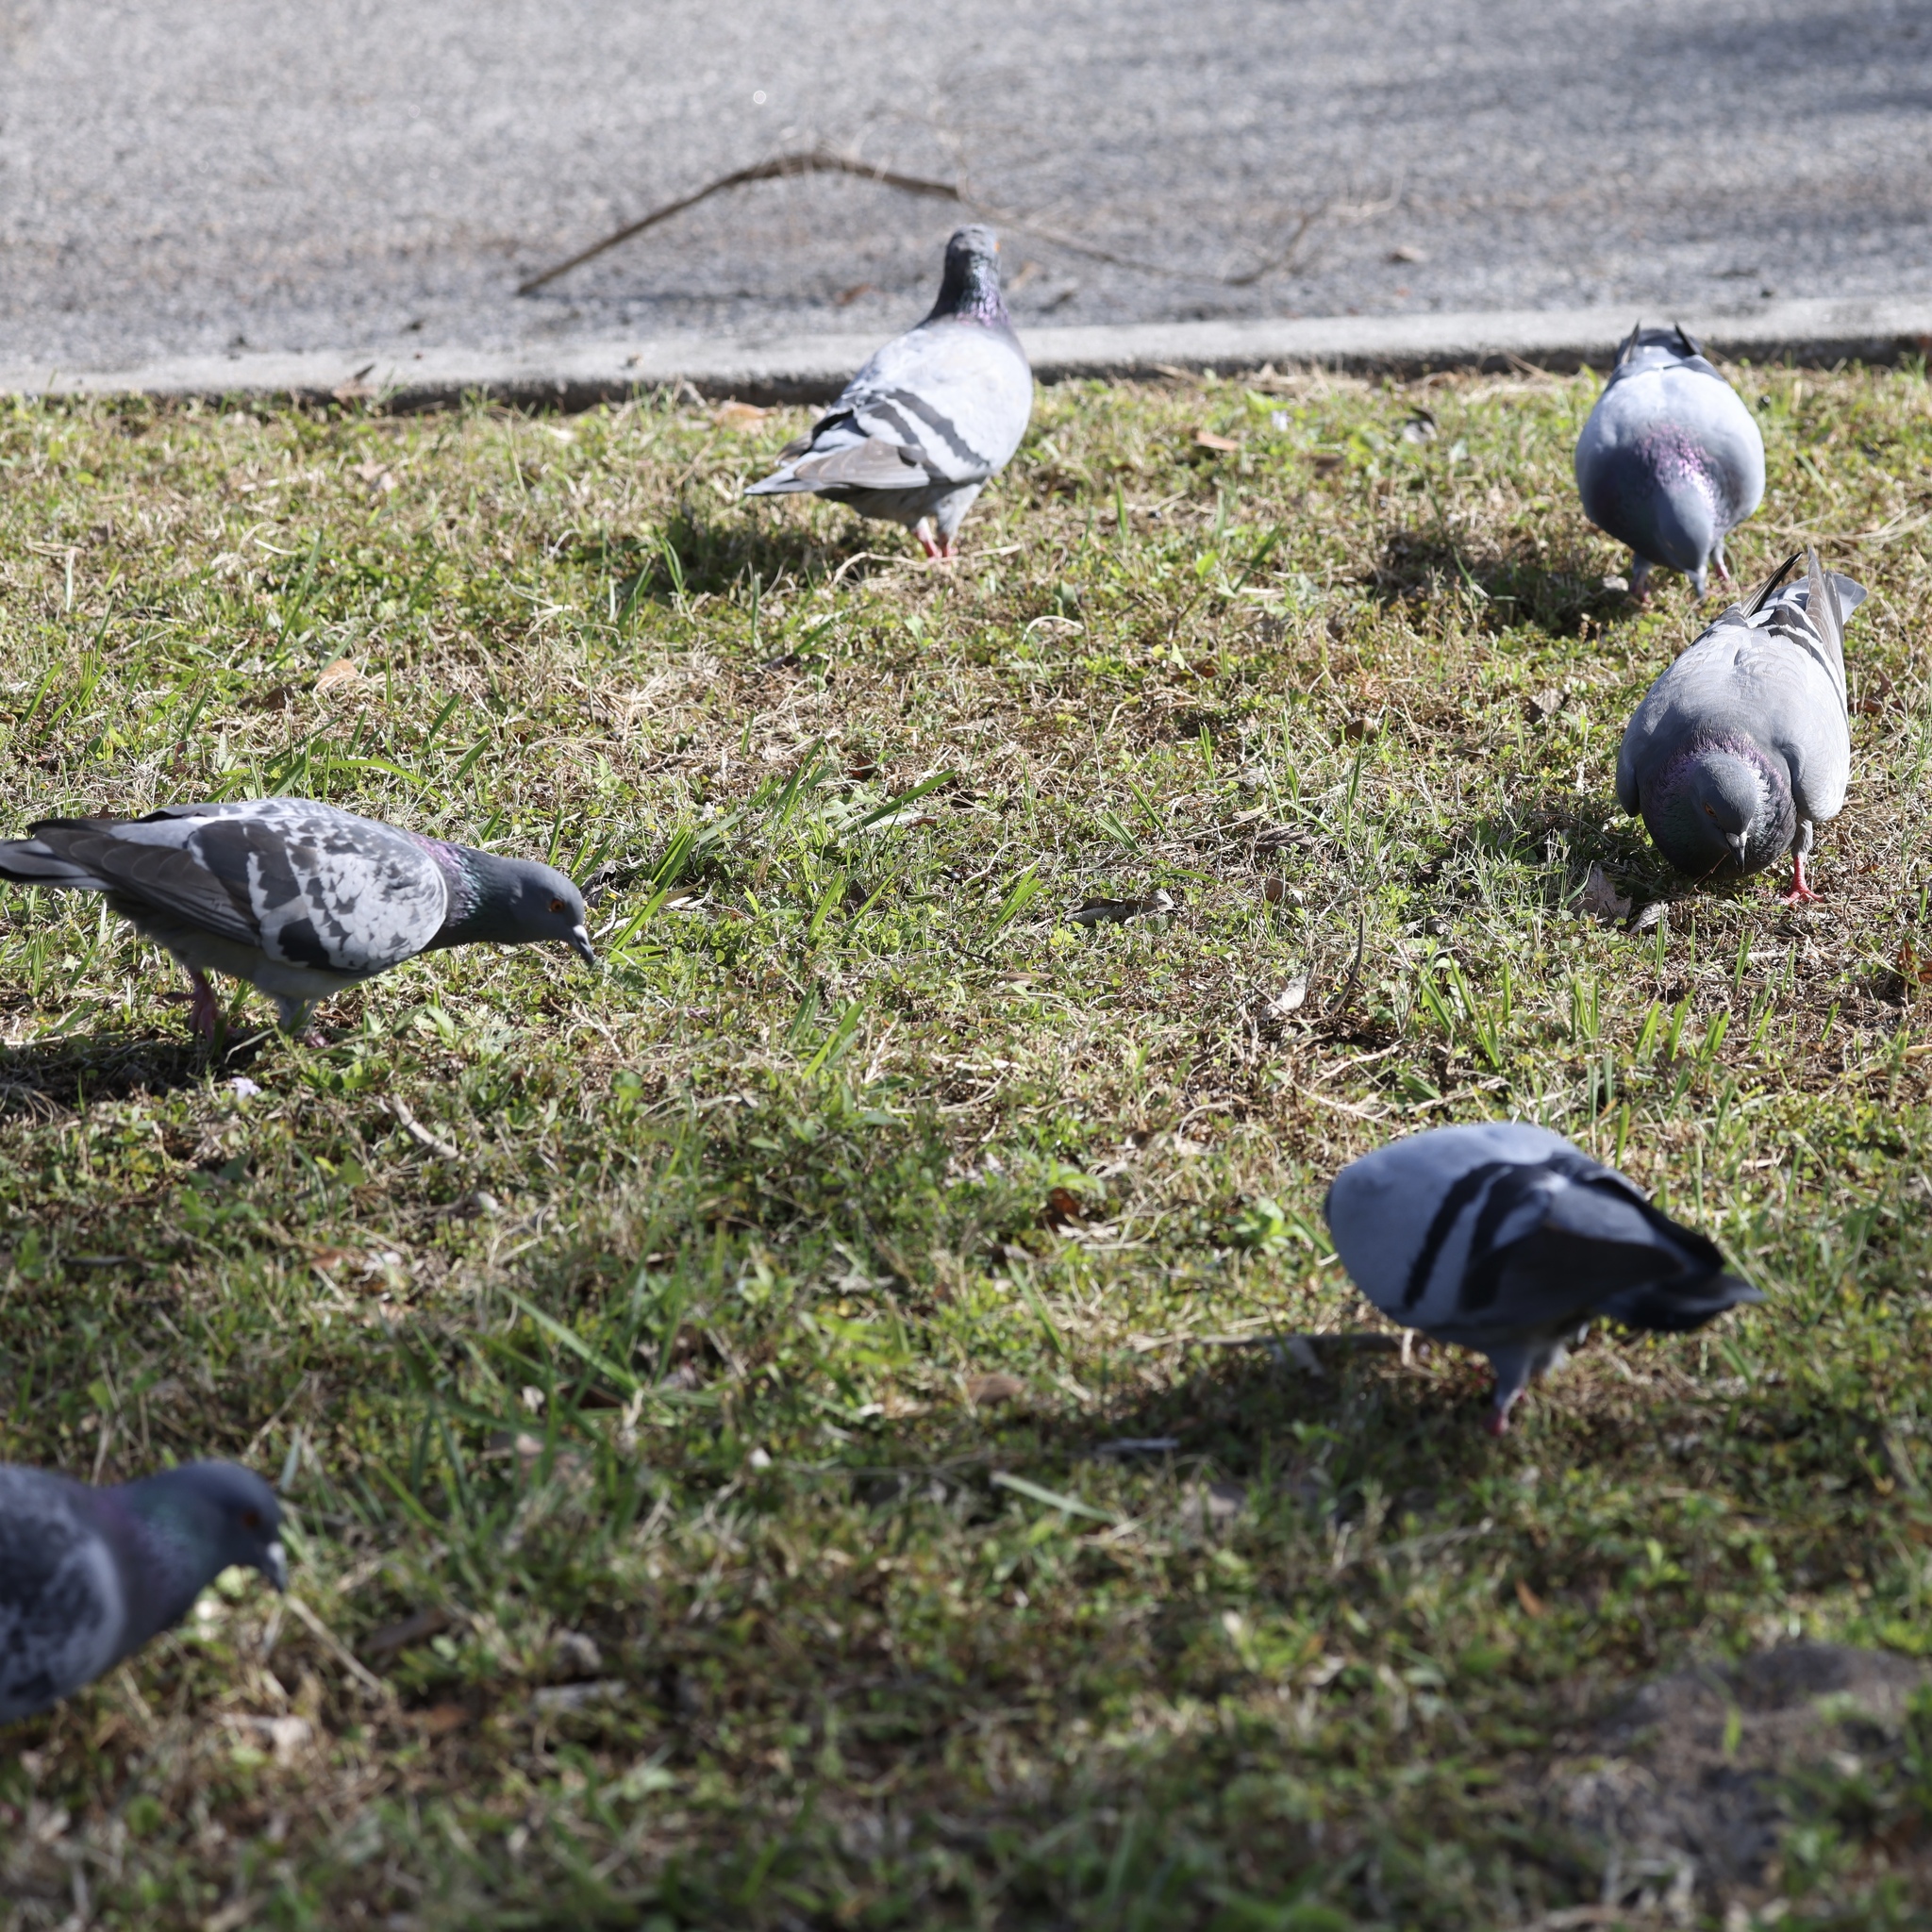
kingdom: Animalia
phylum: Chordata
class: Aves
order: Columbiformes
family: Columbidae
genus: Columba
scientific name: Columba livia
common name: Rock pigeon
